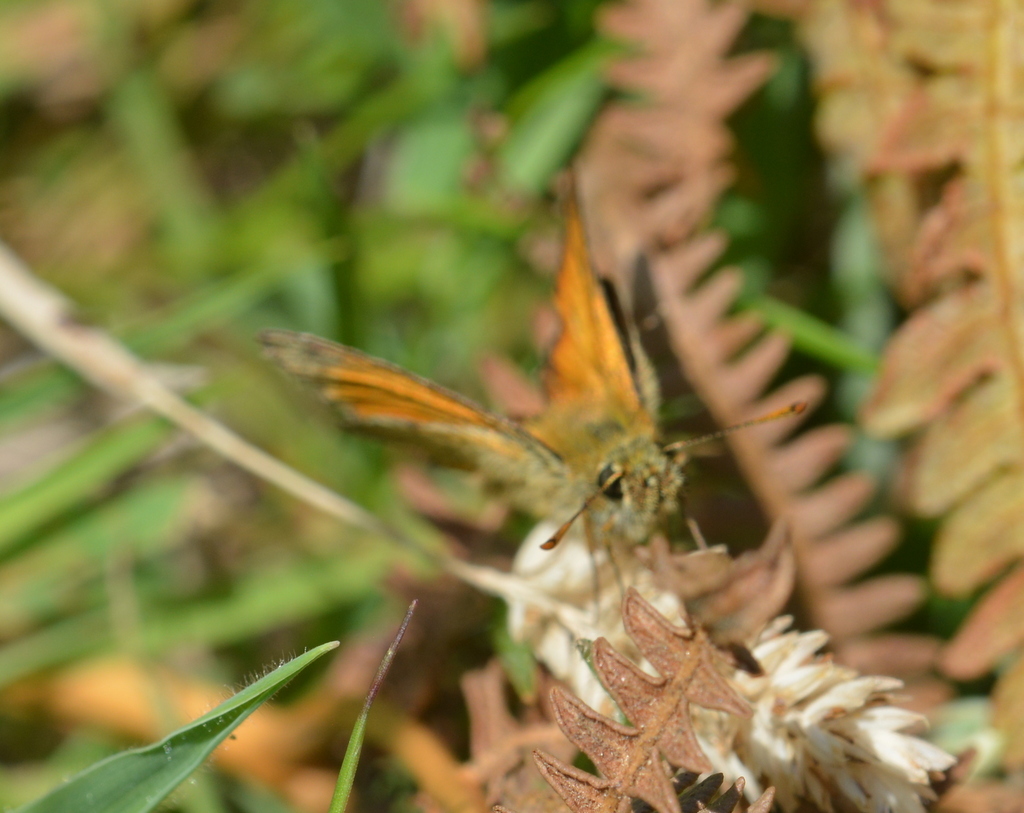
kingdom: Animalia
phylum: Arthropoda
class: Insecta
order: Lepidoptera
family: Hesperiidae
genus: Thymelicus
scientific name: Thymelicus sylvestris
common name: Small skipper
